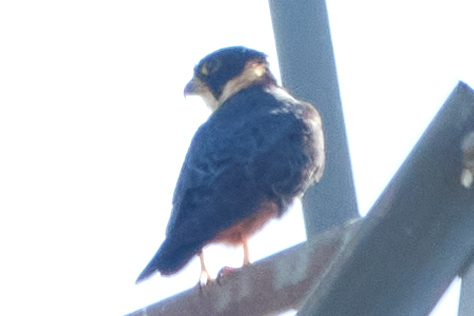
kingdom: Animalia
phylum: Chordata
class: Aves
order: Falconiformes
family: Falconidae
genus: Falco
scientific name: Falco rufigularis
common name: Bat falcon
